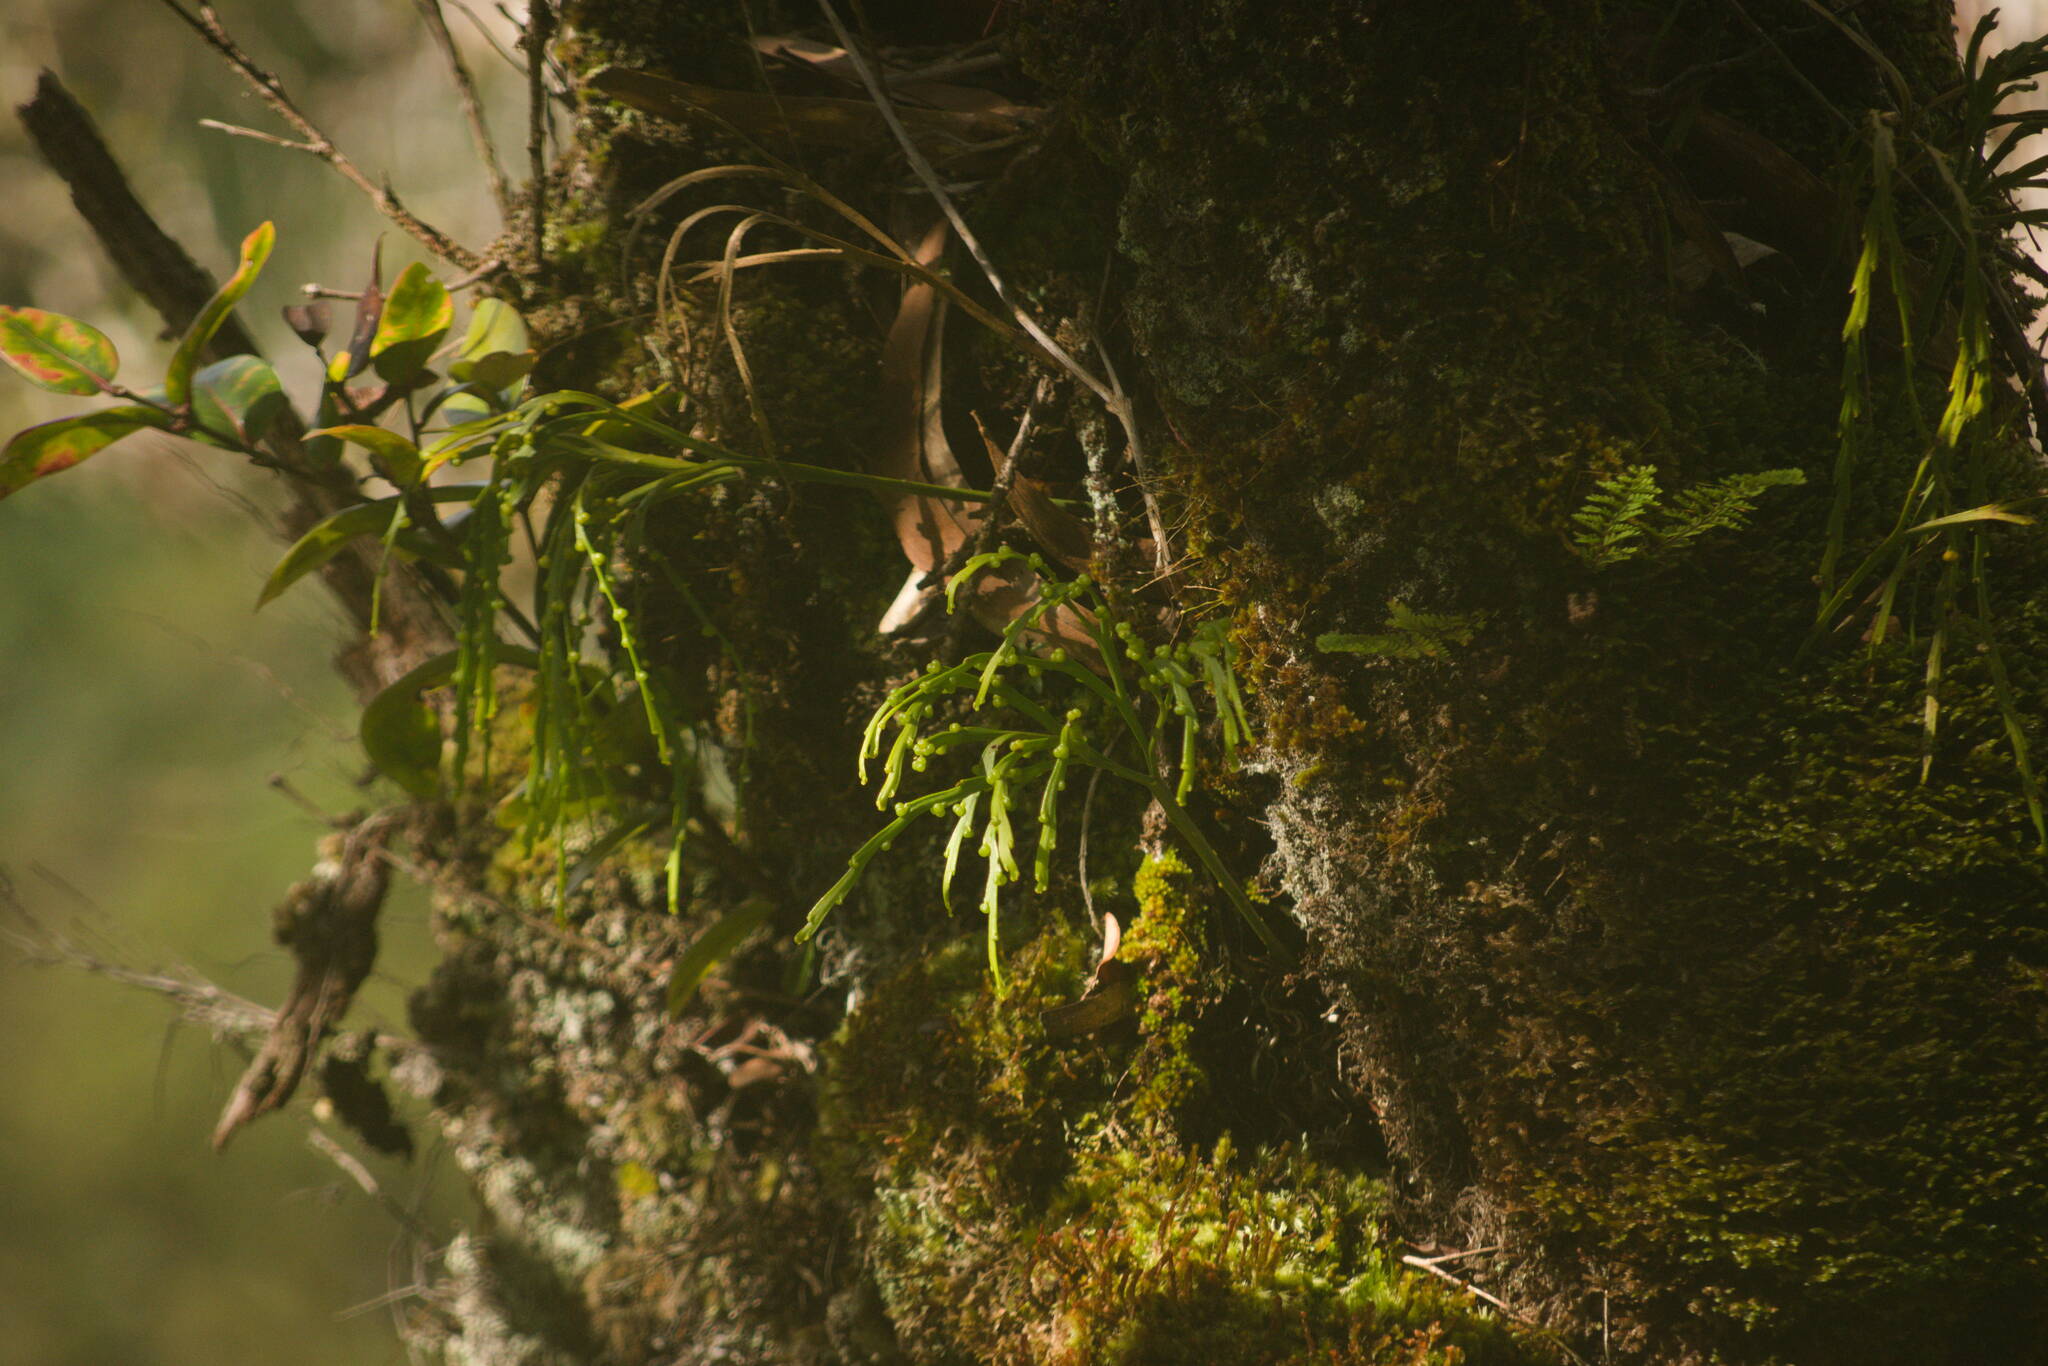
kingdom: Plantae
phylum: Tracheophyta
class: Polypodiopsida
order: Psilotales
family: Psilotaceae
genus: Psilotum
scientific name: Psilotum complanatum
